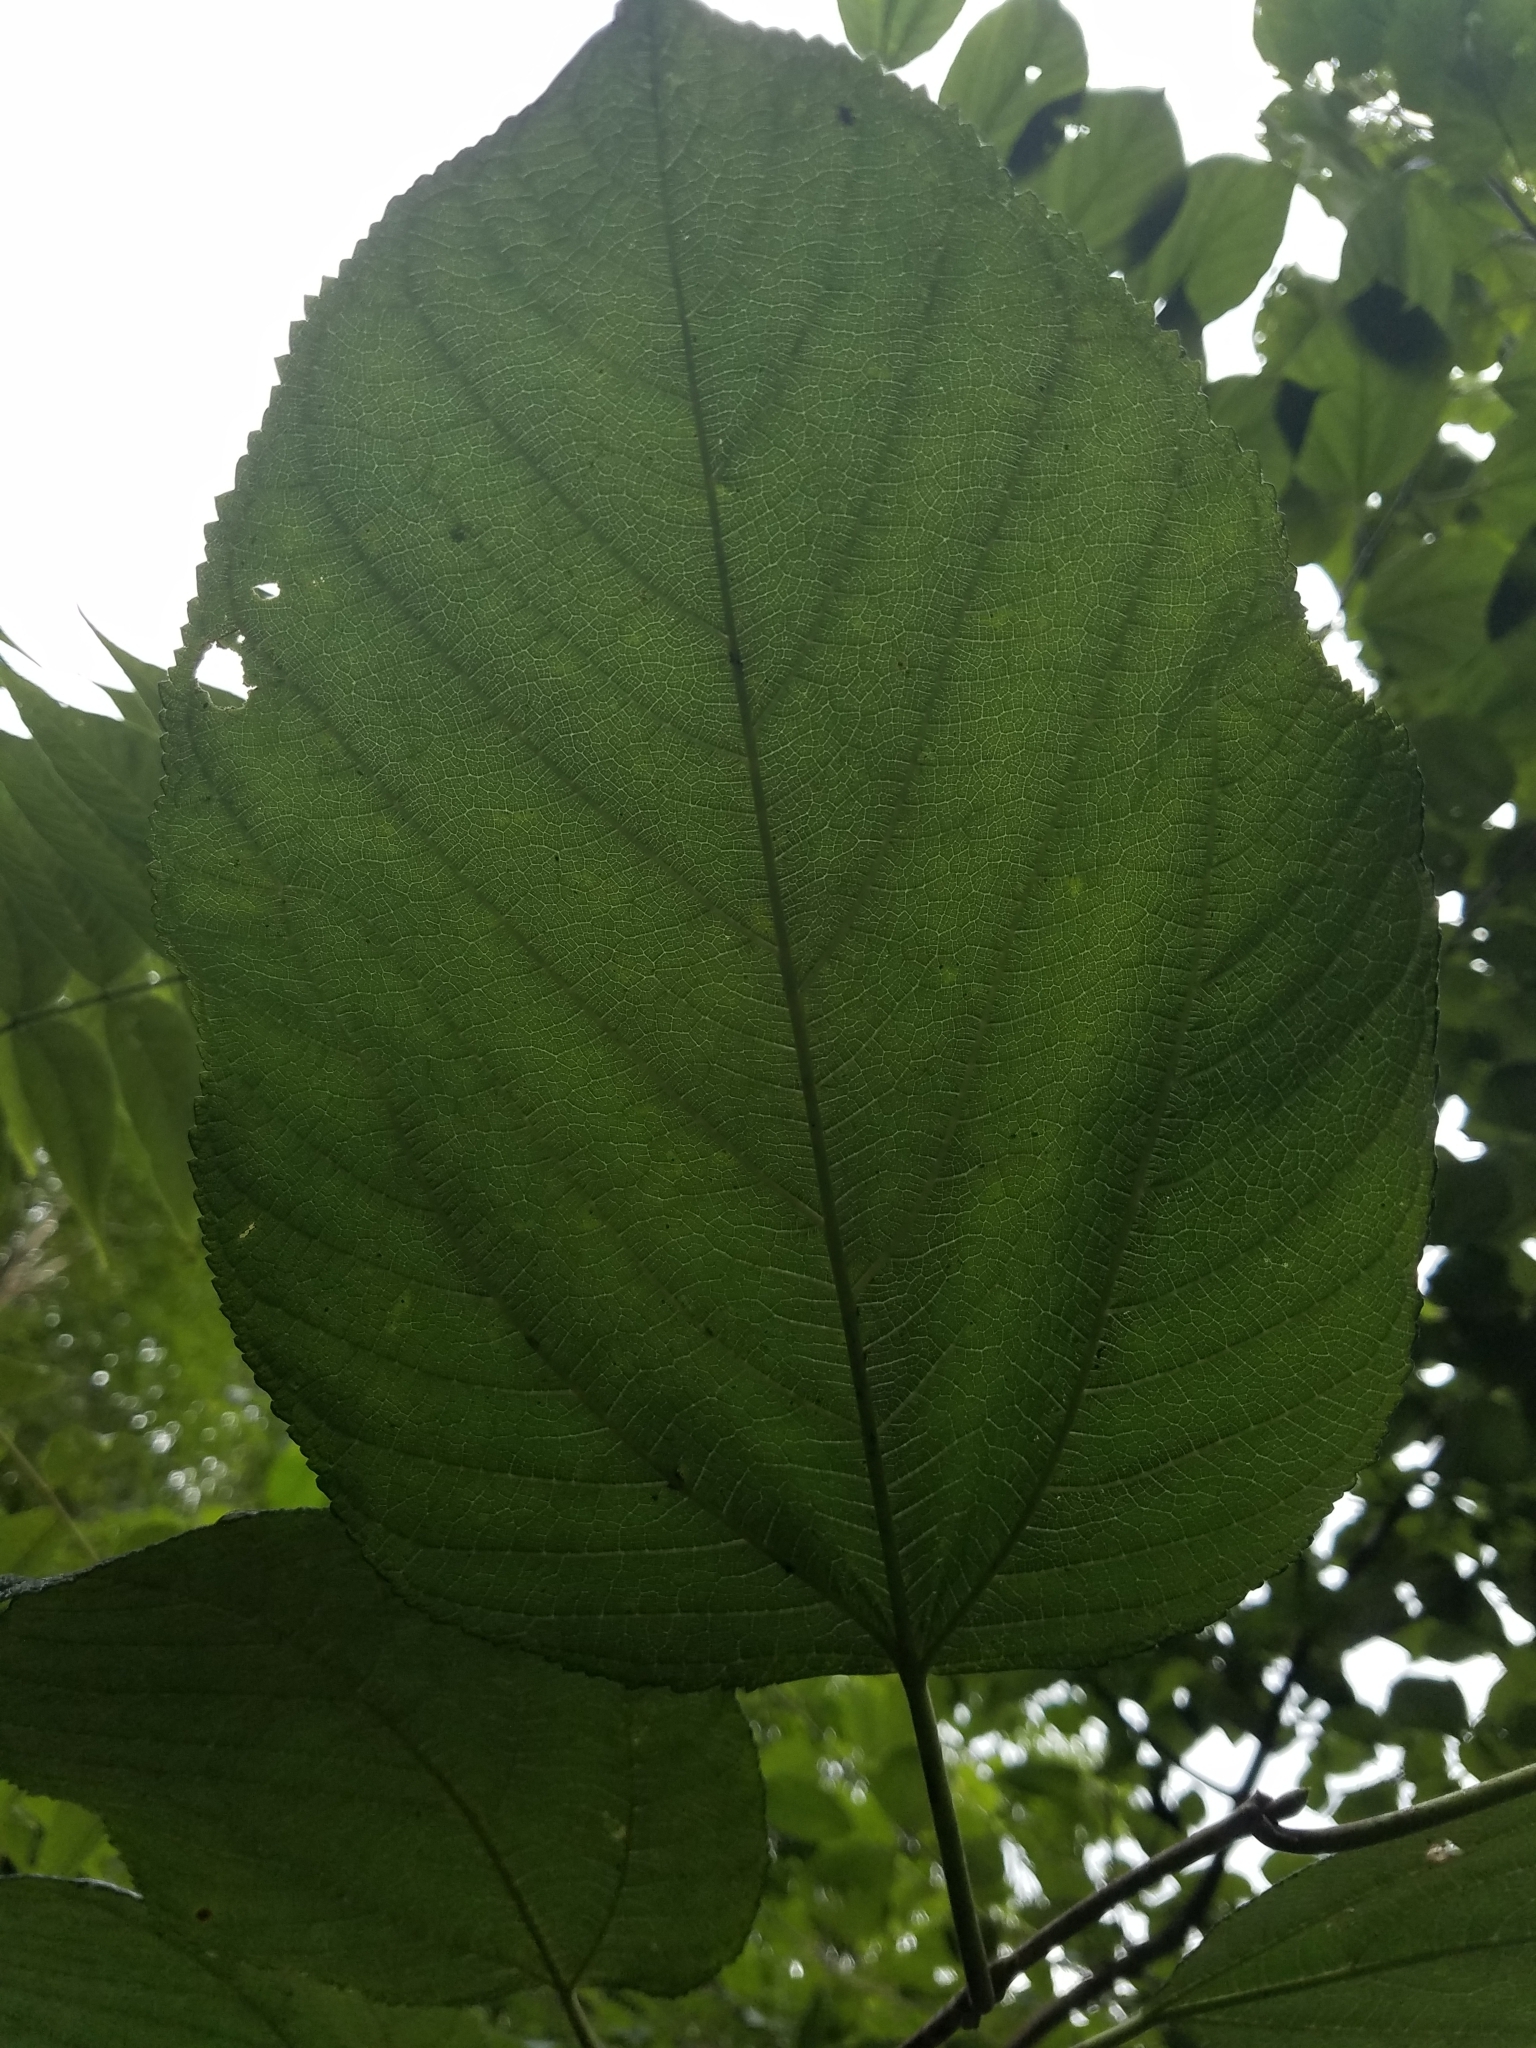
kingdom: Plantae
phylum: Tracheophyta
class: Magnoliopsida
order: Malvales
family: Malvaceae
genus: Tilia
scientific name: Tilia americana
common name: Basswood
